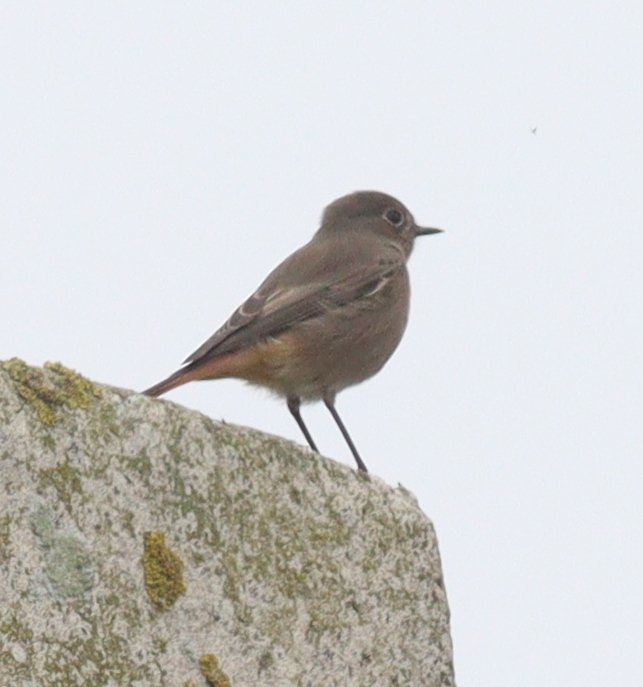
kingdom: Animalia
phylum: Chordata
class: Aves
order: Passeriformes
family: Muscicapidae
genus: Phoenicurus
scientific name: Phoenicurus ochruros
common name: Black redstart
